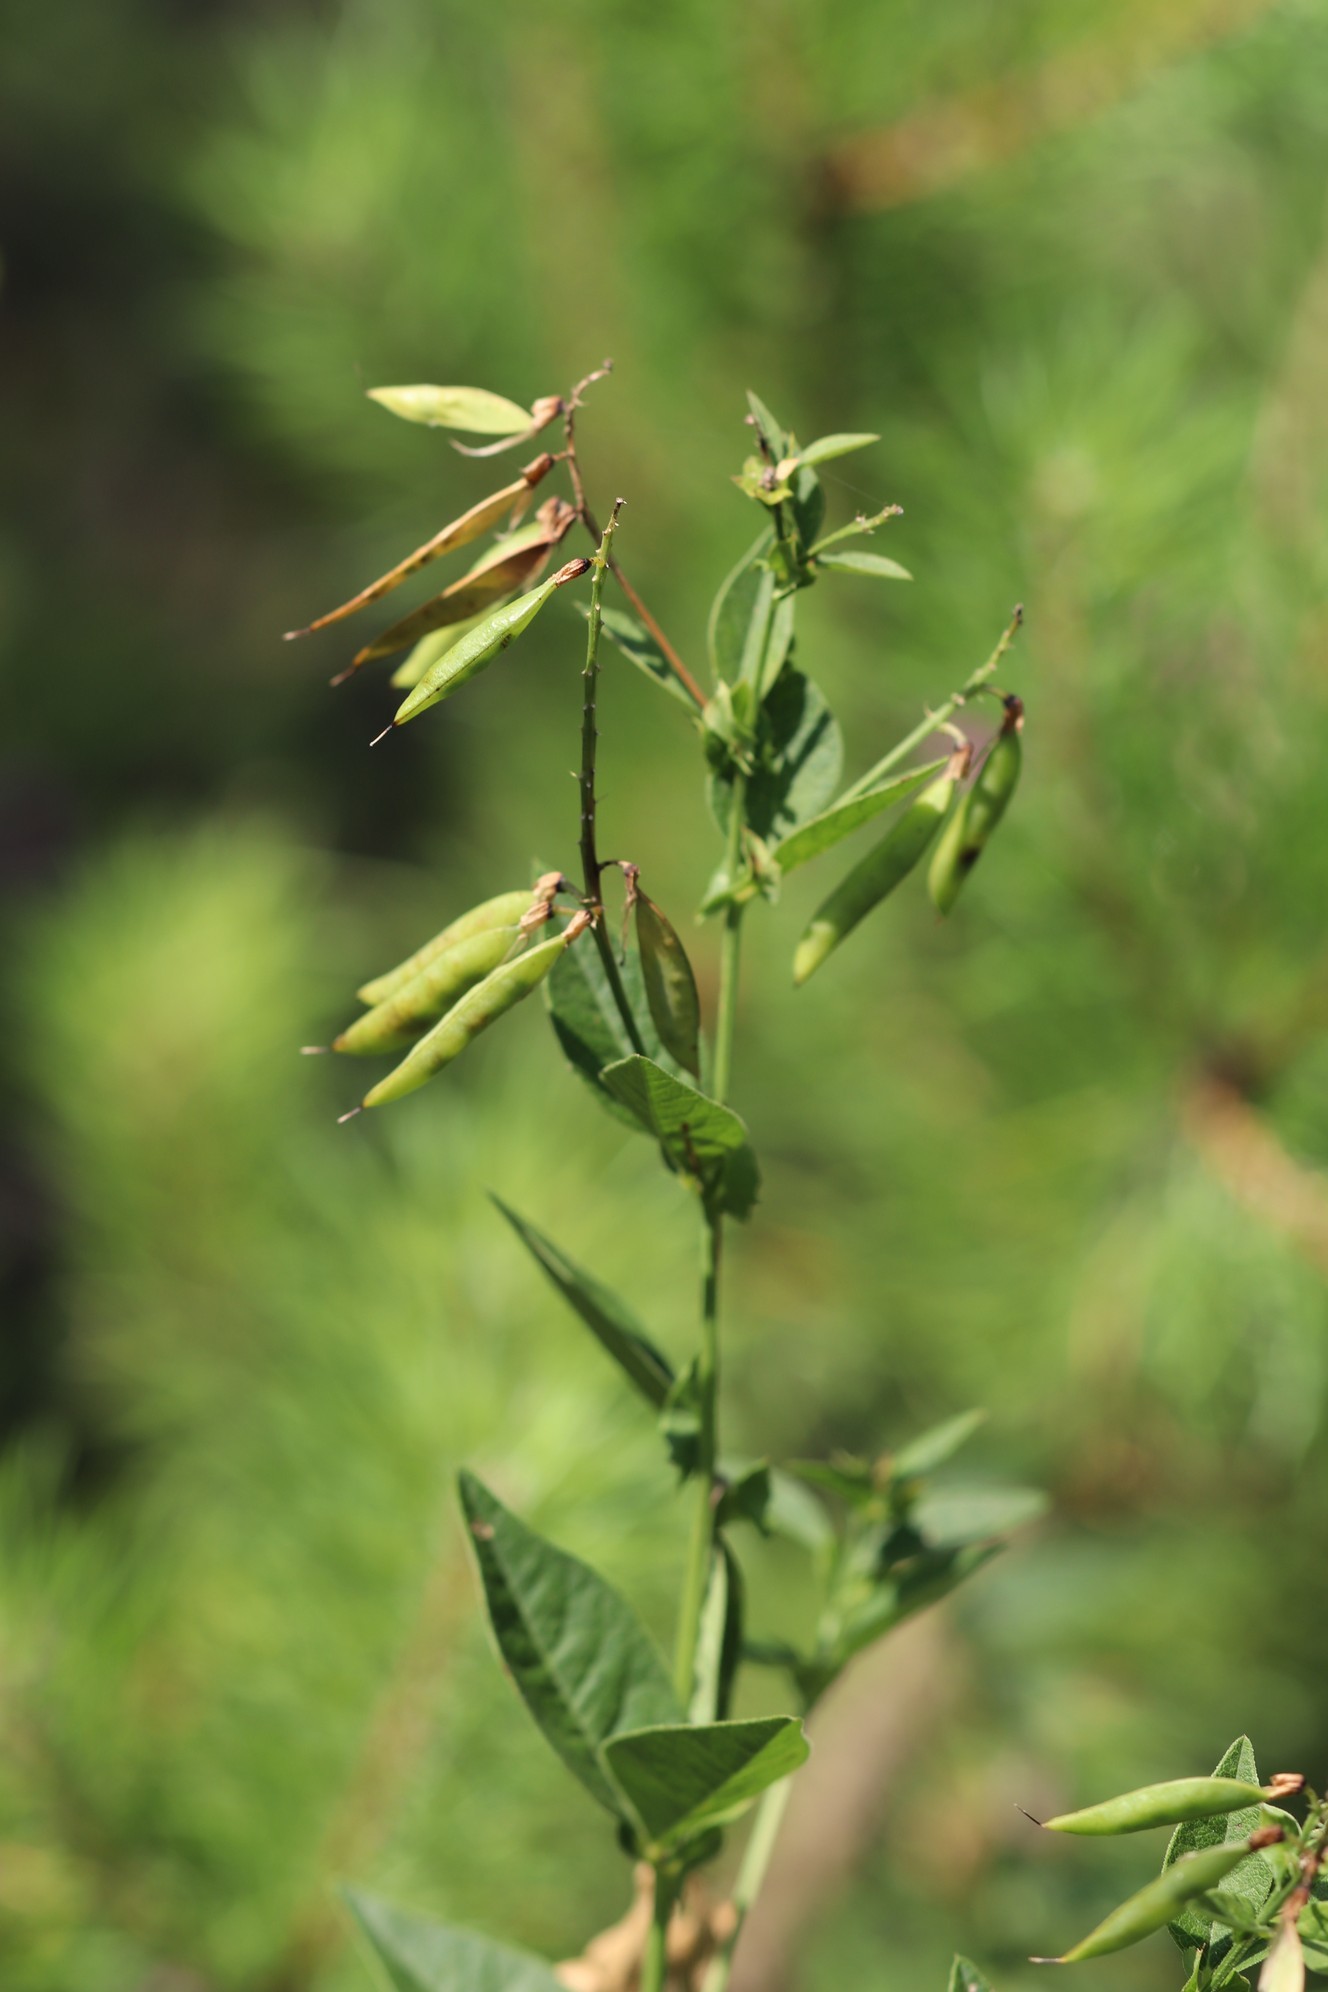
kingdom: Plantae
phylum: Tracheophyta
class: Magnoliopsida
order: Fabales
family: Fabaceae
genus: Vicia
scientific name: Vicia unijuga
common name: Two-leaf vetch
